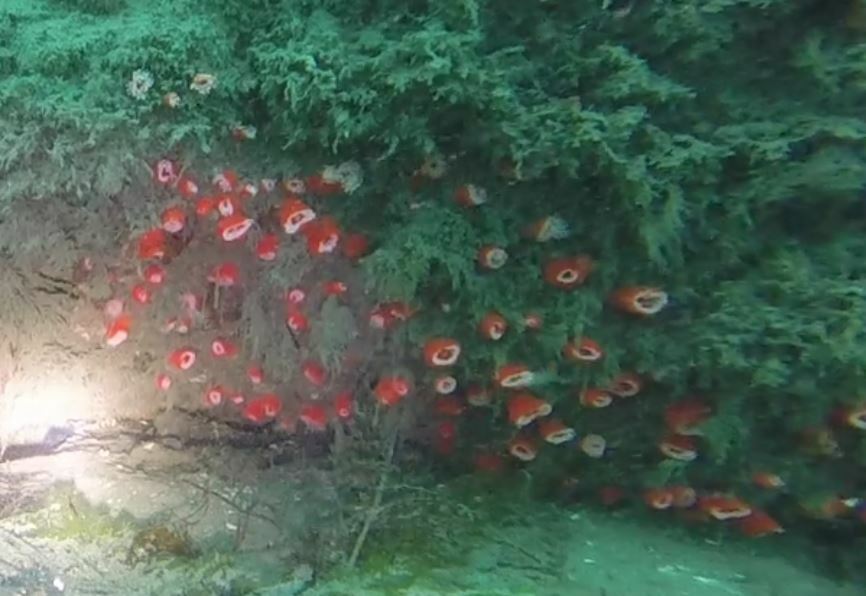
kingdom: Animalia
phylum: Cnidaria
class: Anthozoa
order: Corallimorpharia
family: Corallimorphidae
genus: Corynactis
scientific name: Corynactis californica
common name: Strawberry corallimorpharian
